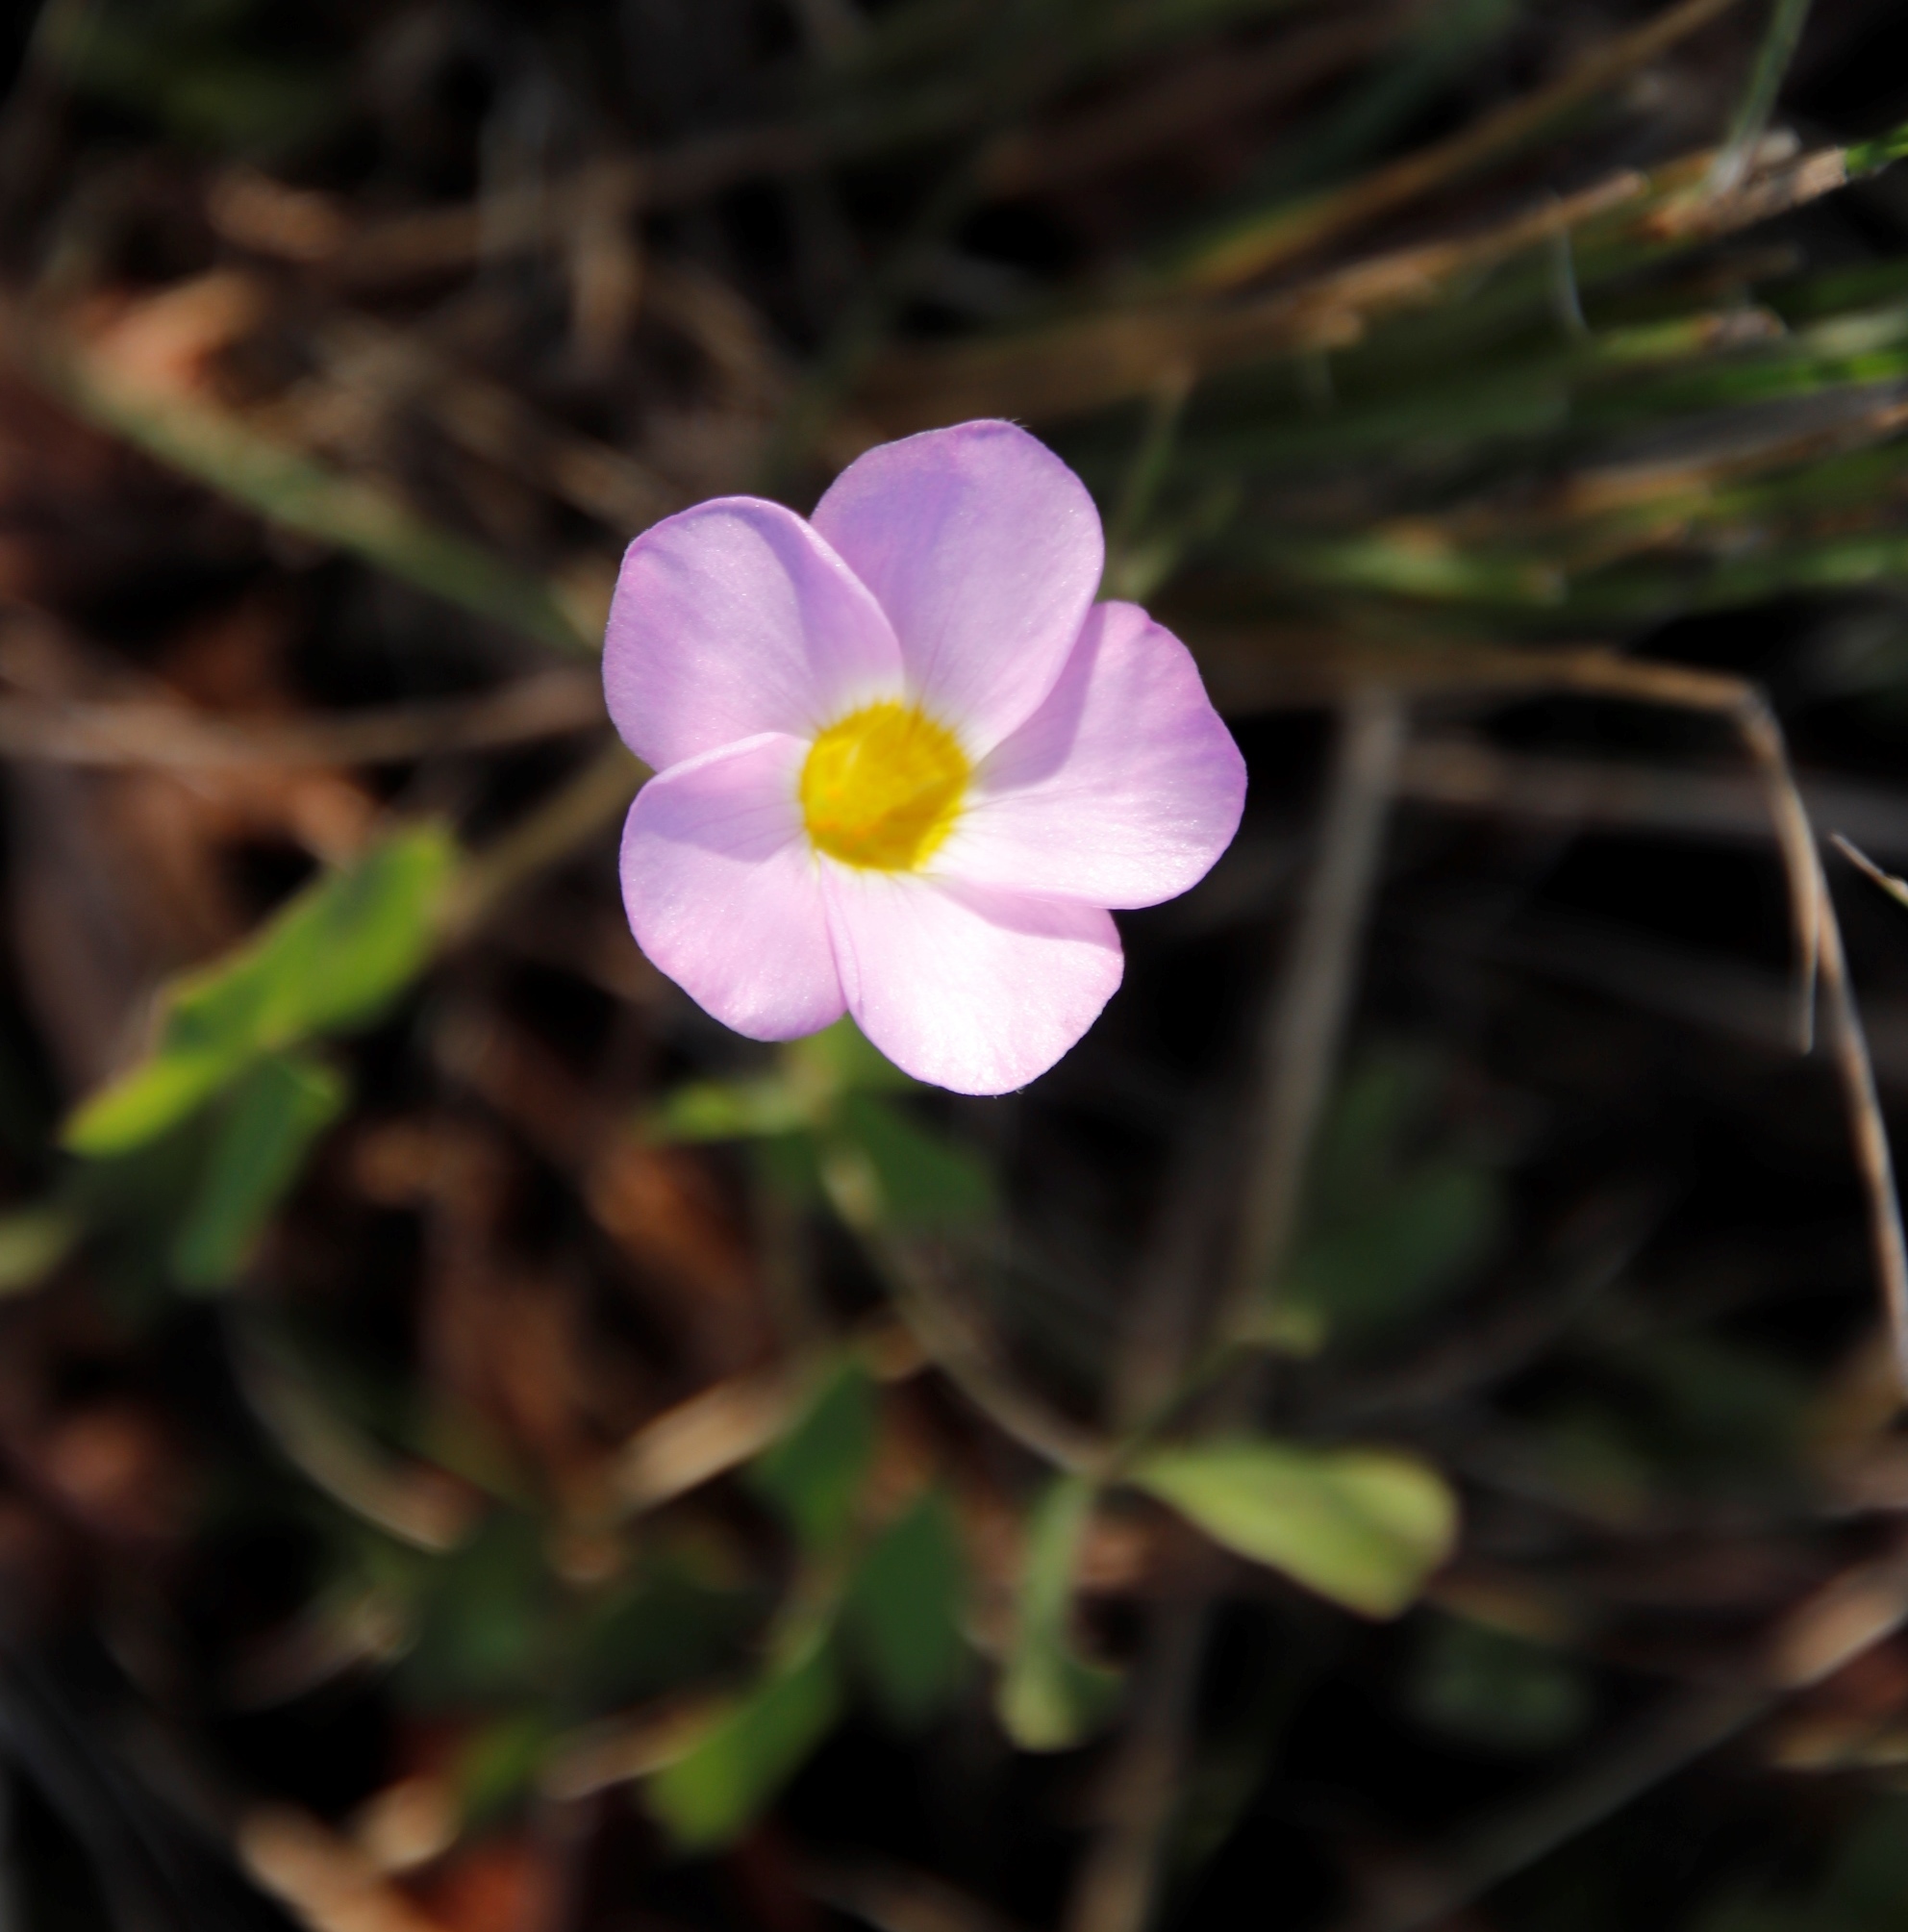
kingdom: Plantae
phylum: Tracheophyta
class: Magnoliopsida
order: Oxalidales
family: Oxalidaceae
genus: Oxalis
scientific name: Oxalis obliquifolia
